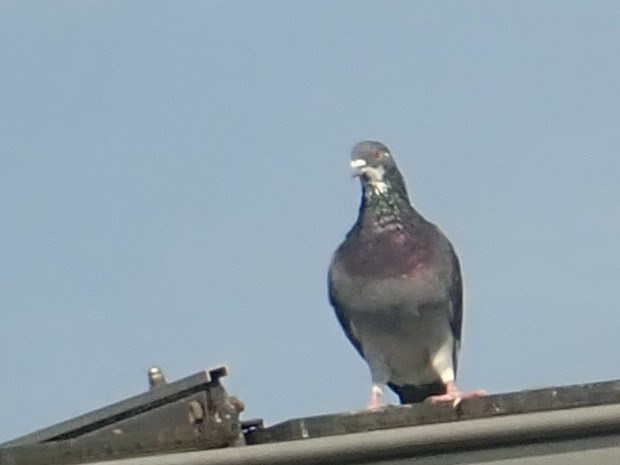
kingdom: Animalia
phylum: Chordata
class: Aves
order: Columbiformes
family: Columbidae
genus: Columba
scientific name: Columba livia
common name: Rock pigeon
